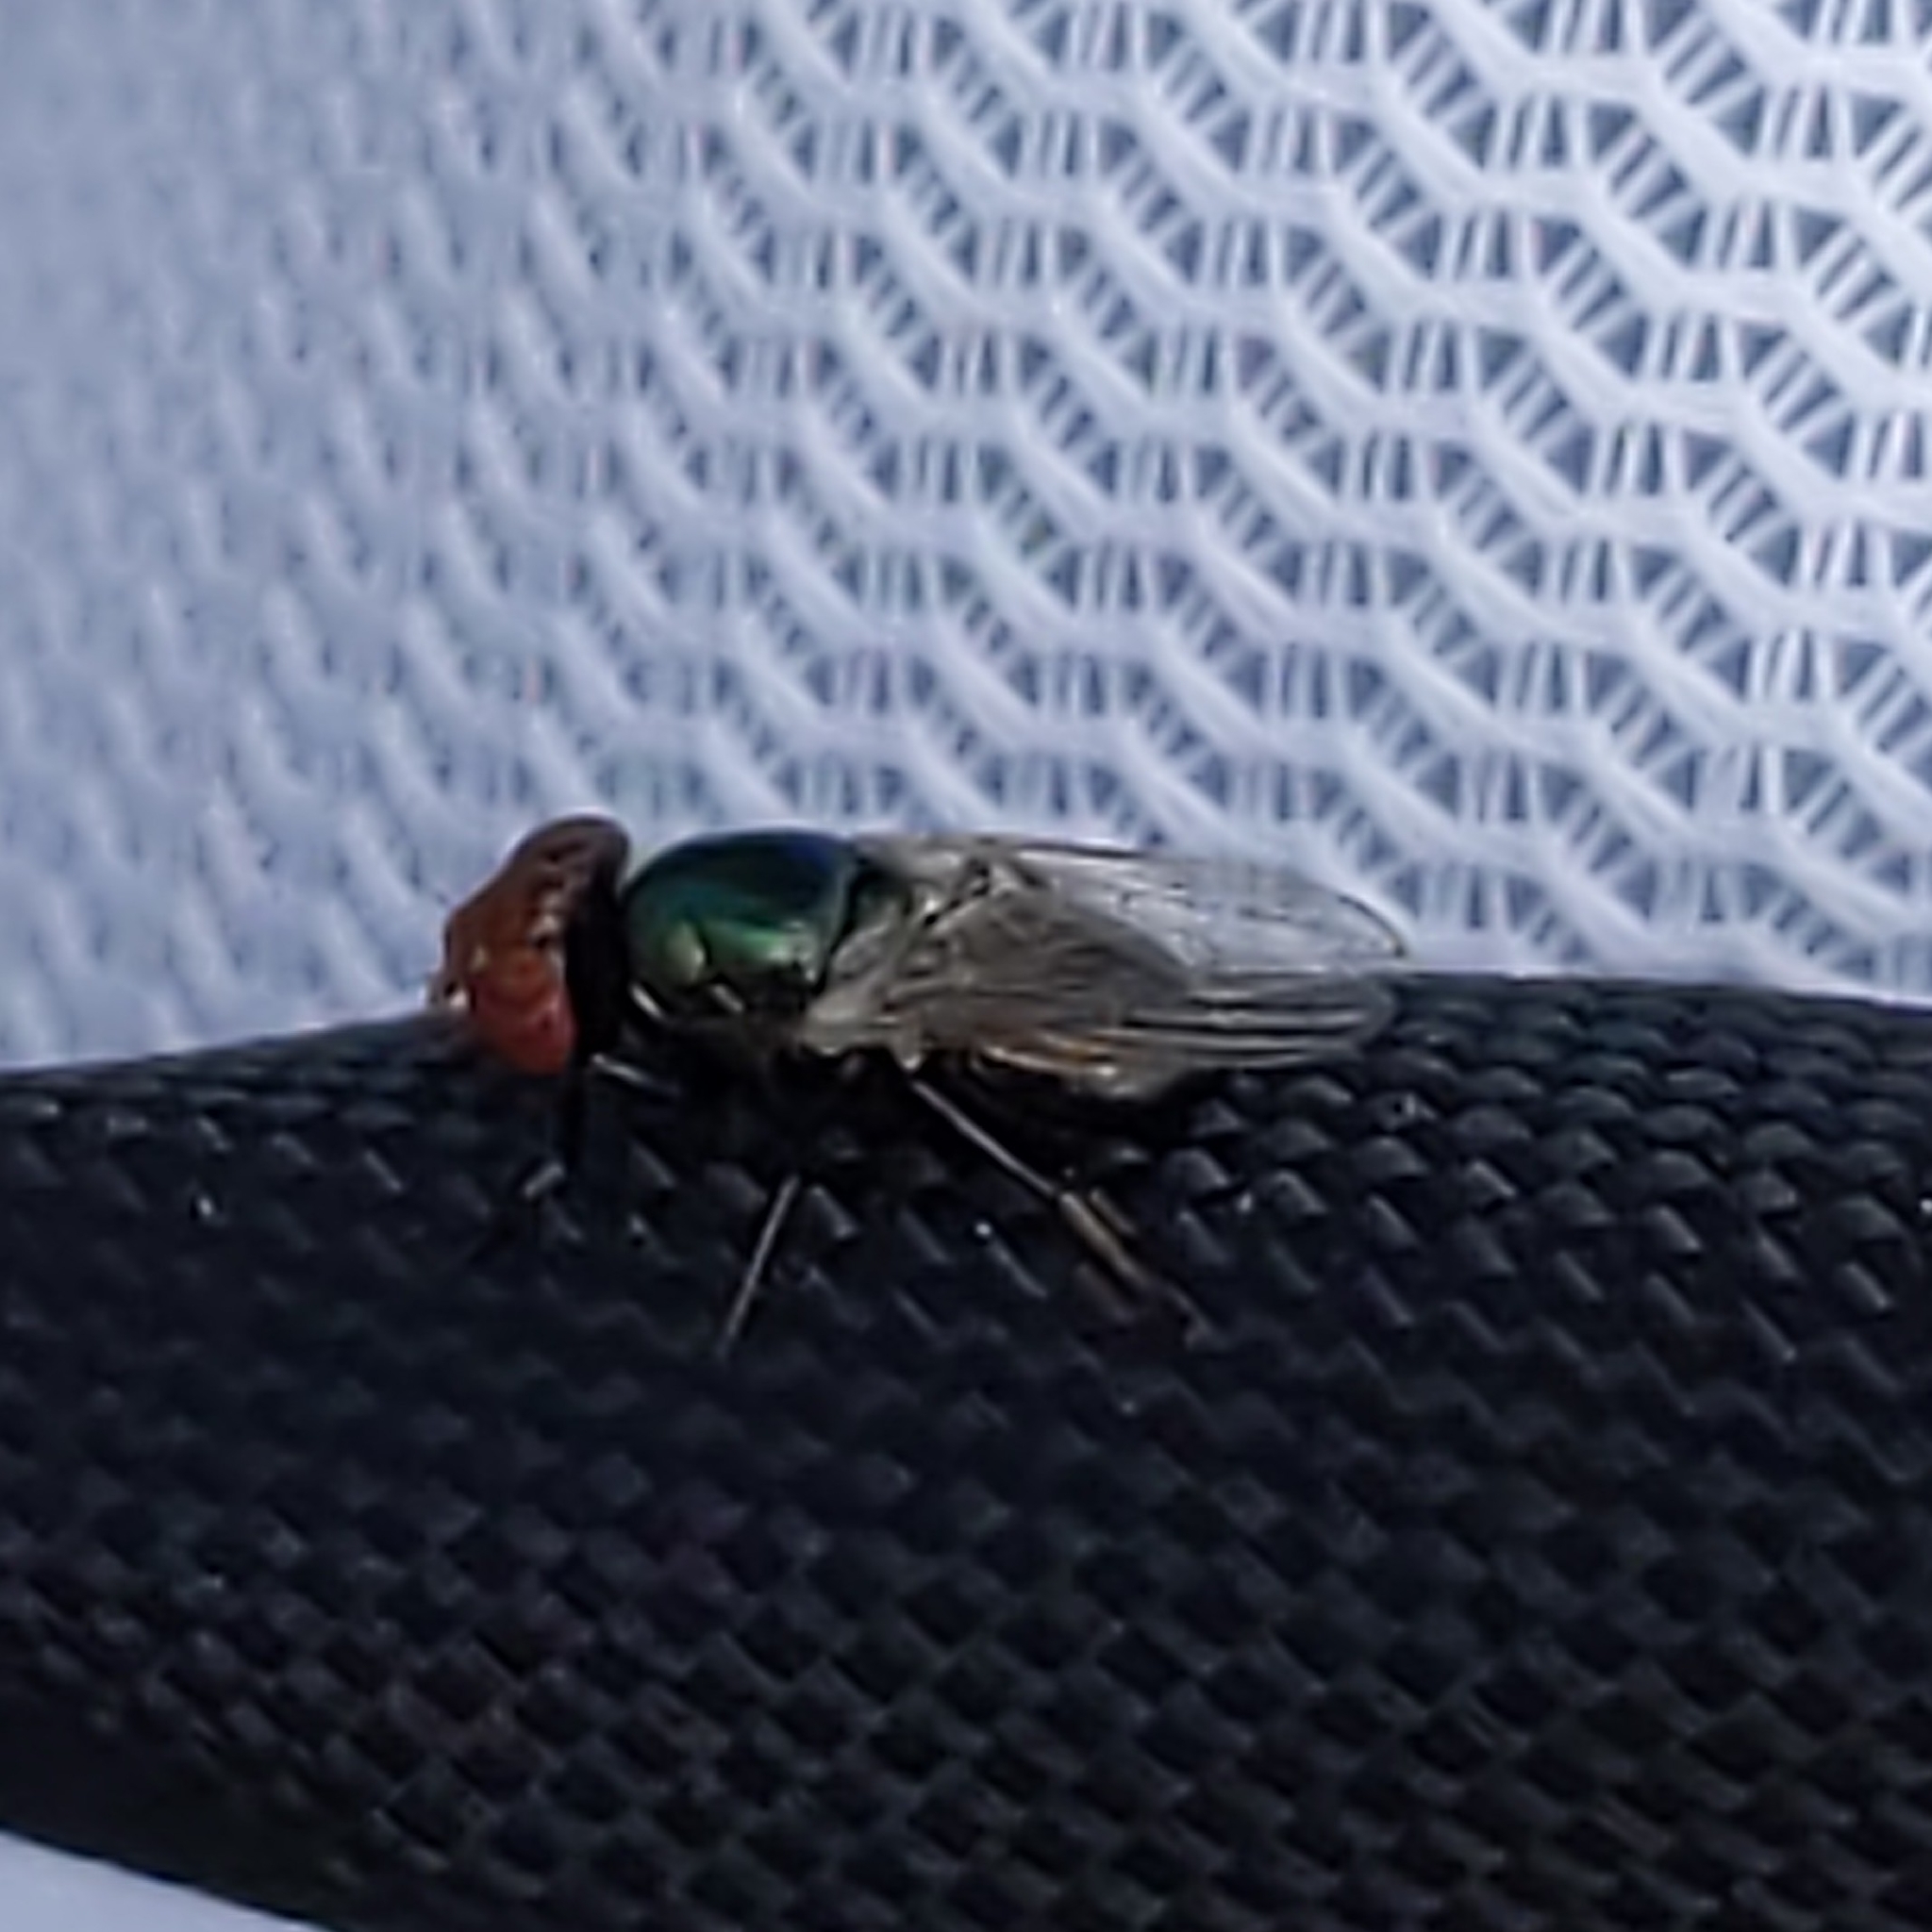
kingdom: Animalia
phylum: Arthropoda
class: Insecta
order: Diptera
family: Ulidiidae
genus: Physiphora
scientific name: Physiphora alceae
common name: Picture-winged fly
